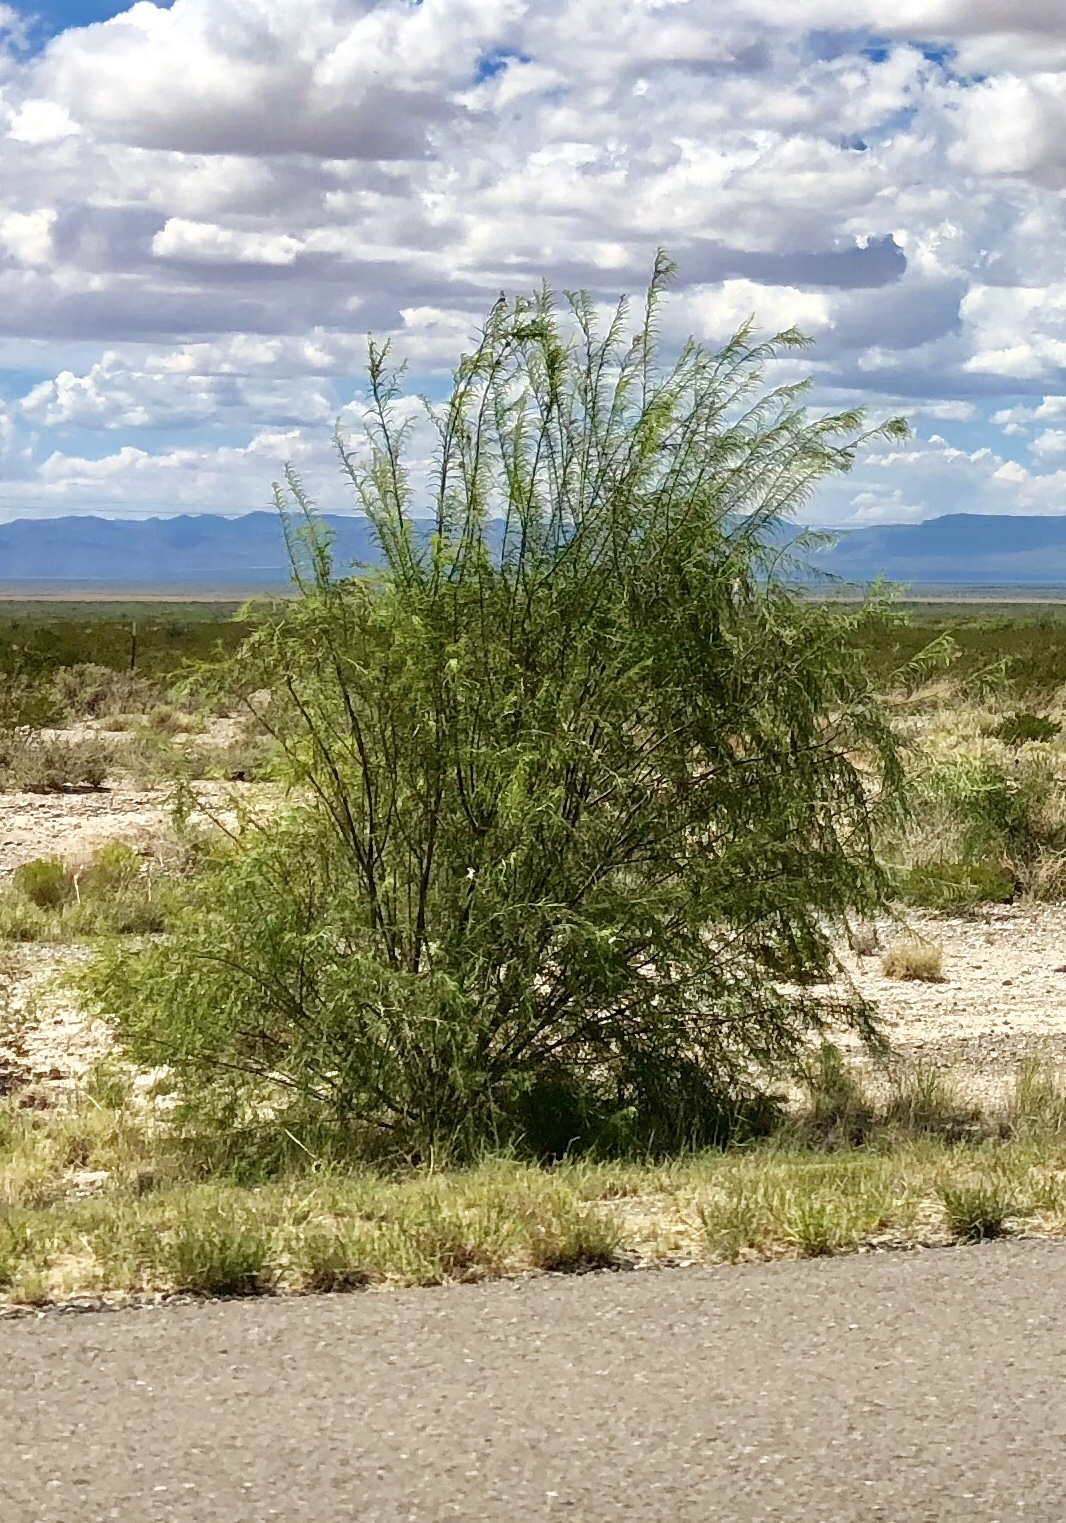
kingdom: Plantae
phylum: Tracheophyta
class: Magnoliopsida
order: Lamiales
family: Bignoniaceae
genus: Chilopsis
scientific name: Chilopsis linearis
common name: Desert-willow
